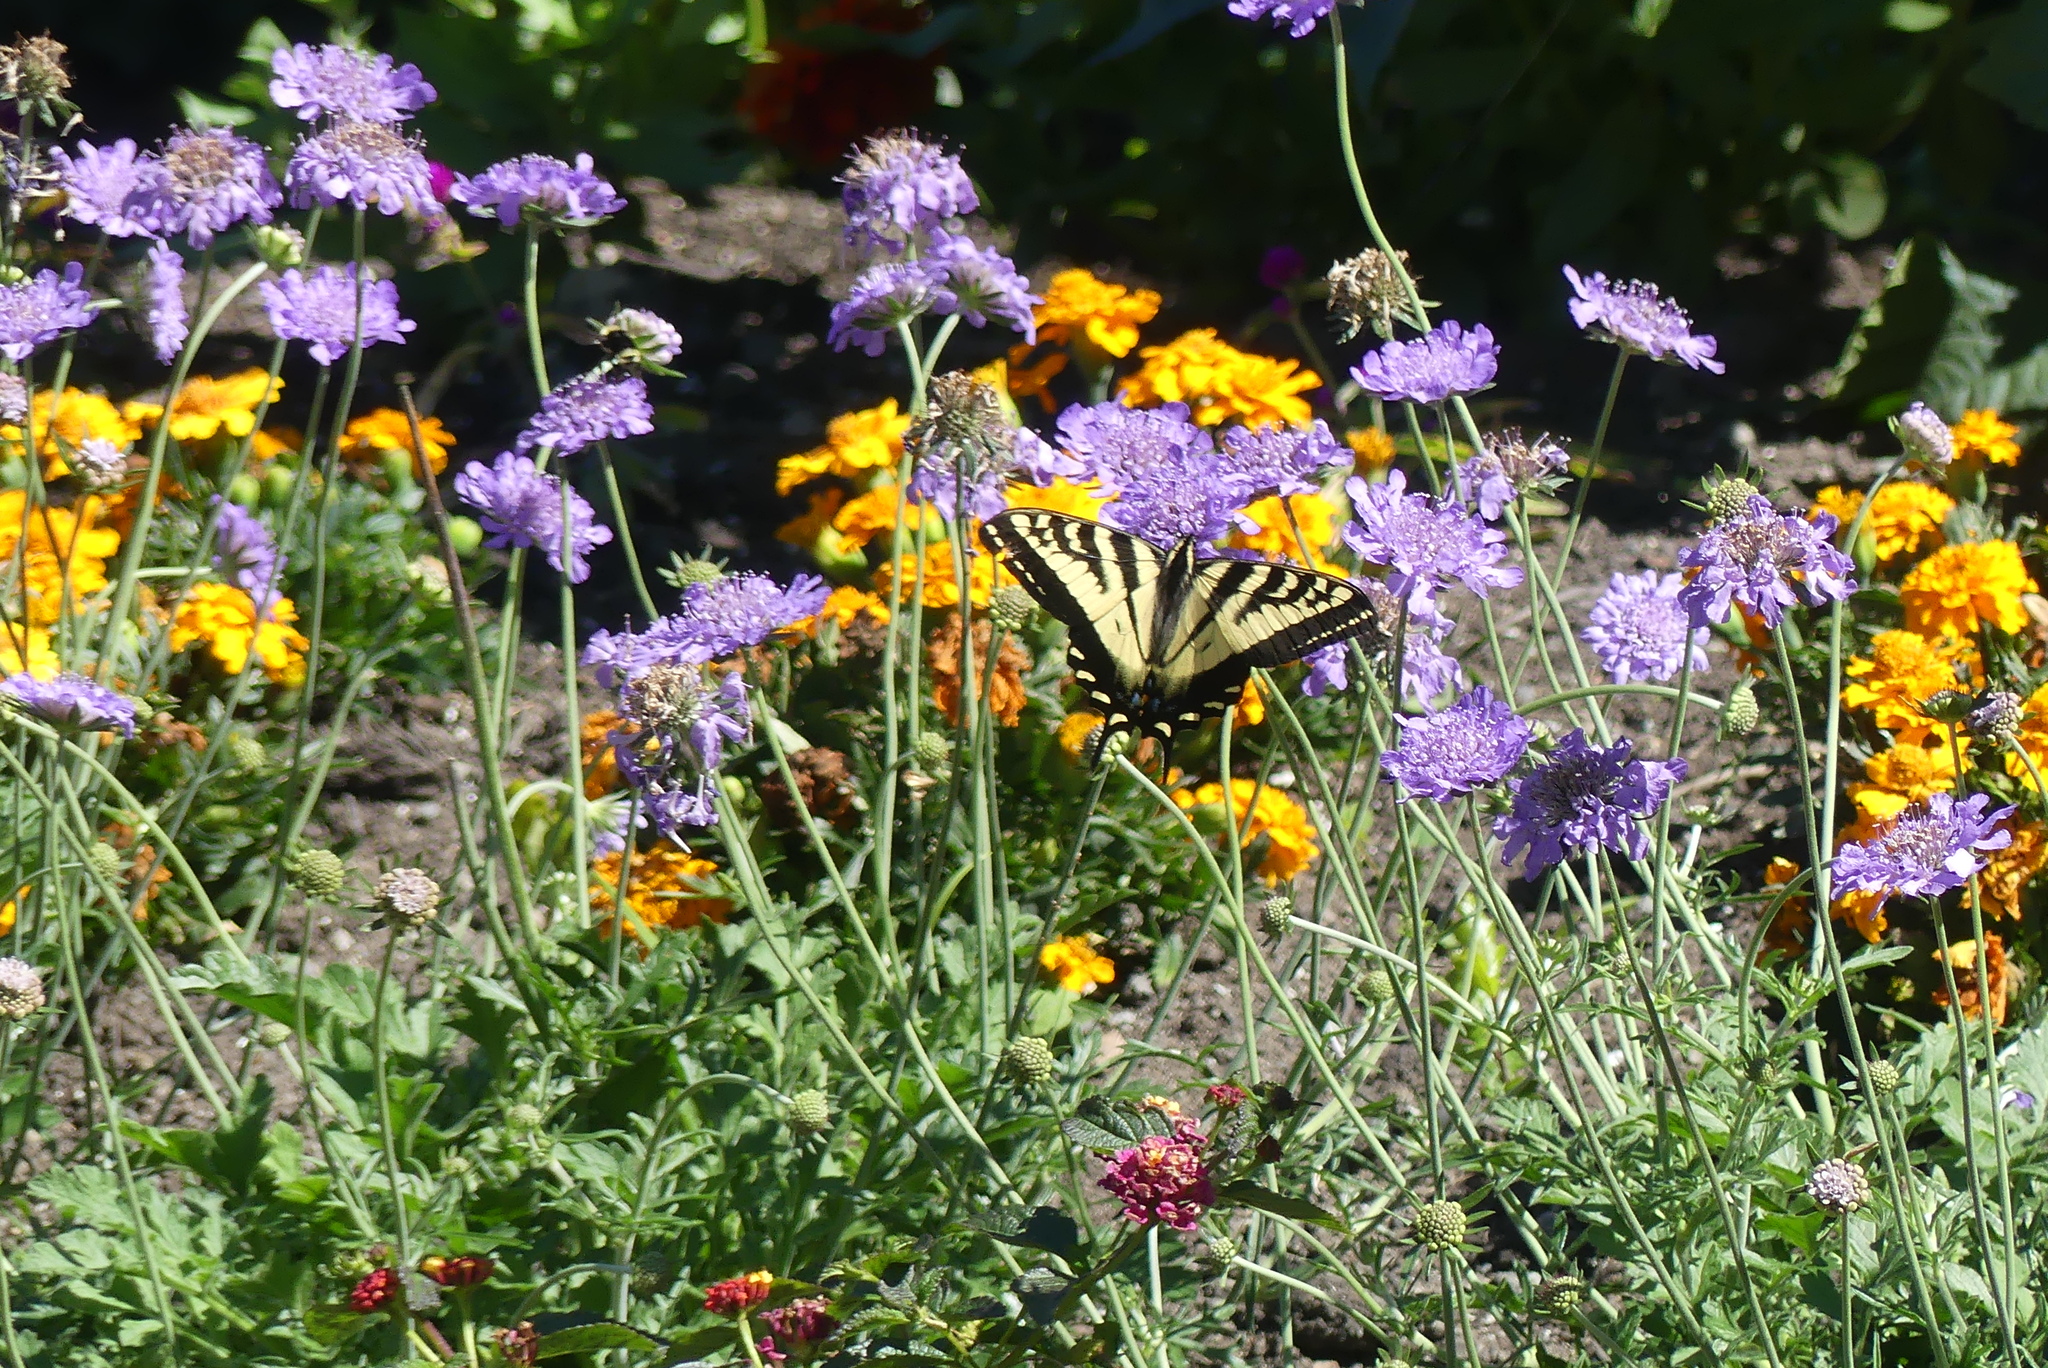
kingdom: Animalia
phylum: Arthropoda
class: Insecta
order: Lepidoptera
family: Papilionidae
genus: Papilio
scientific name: Papilio rutulus
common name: Western tiger swallowtail
